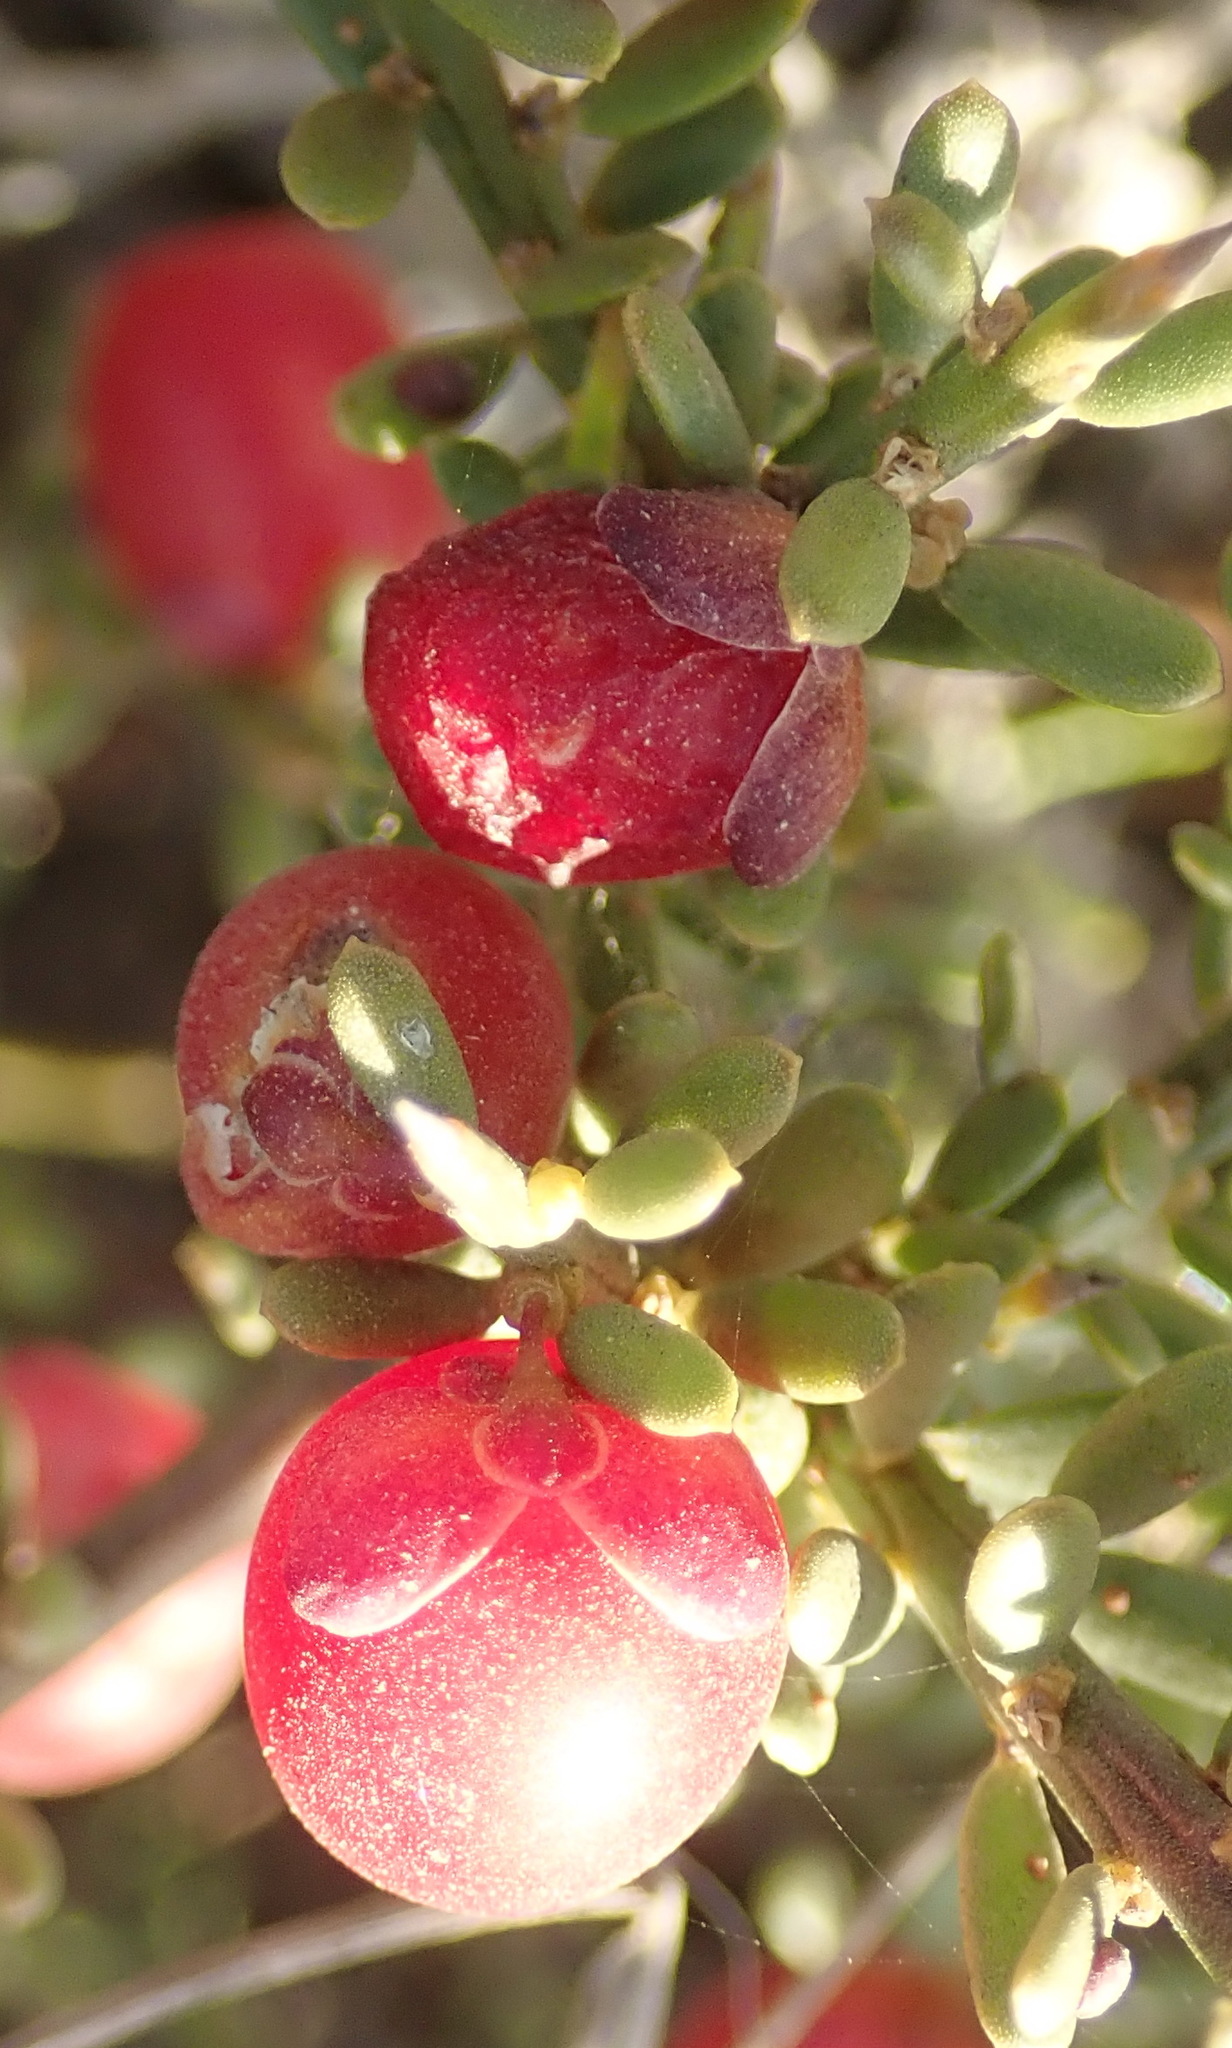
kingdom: Plantae
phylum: Tracheophyta
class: Magnoliopsida
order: Fabales
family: Polygalaceae
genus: Muraltia
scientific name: Muraltia spinosa
